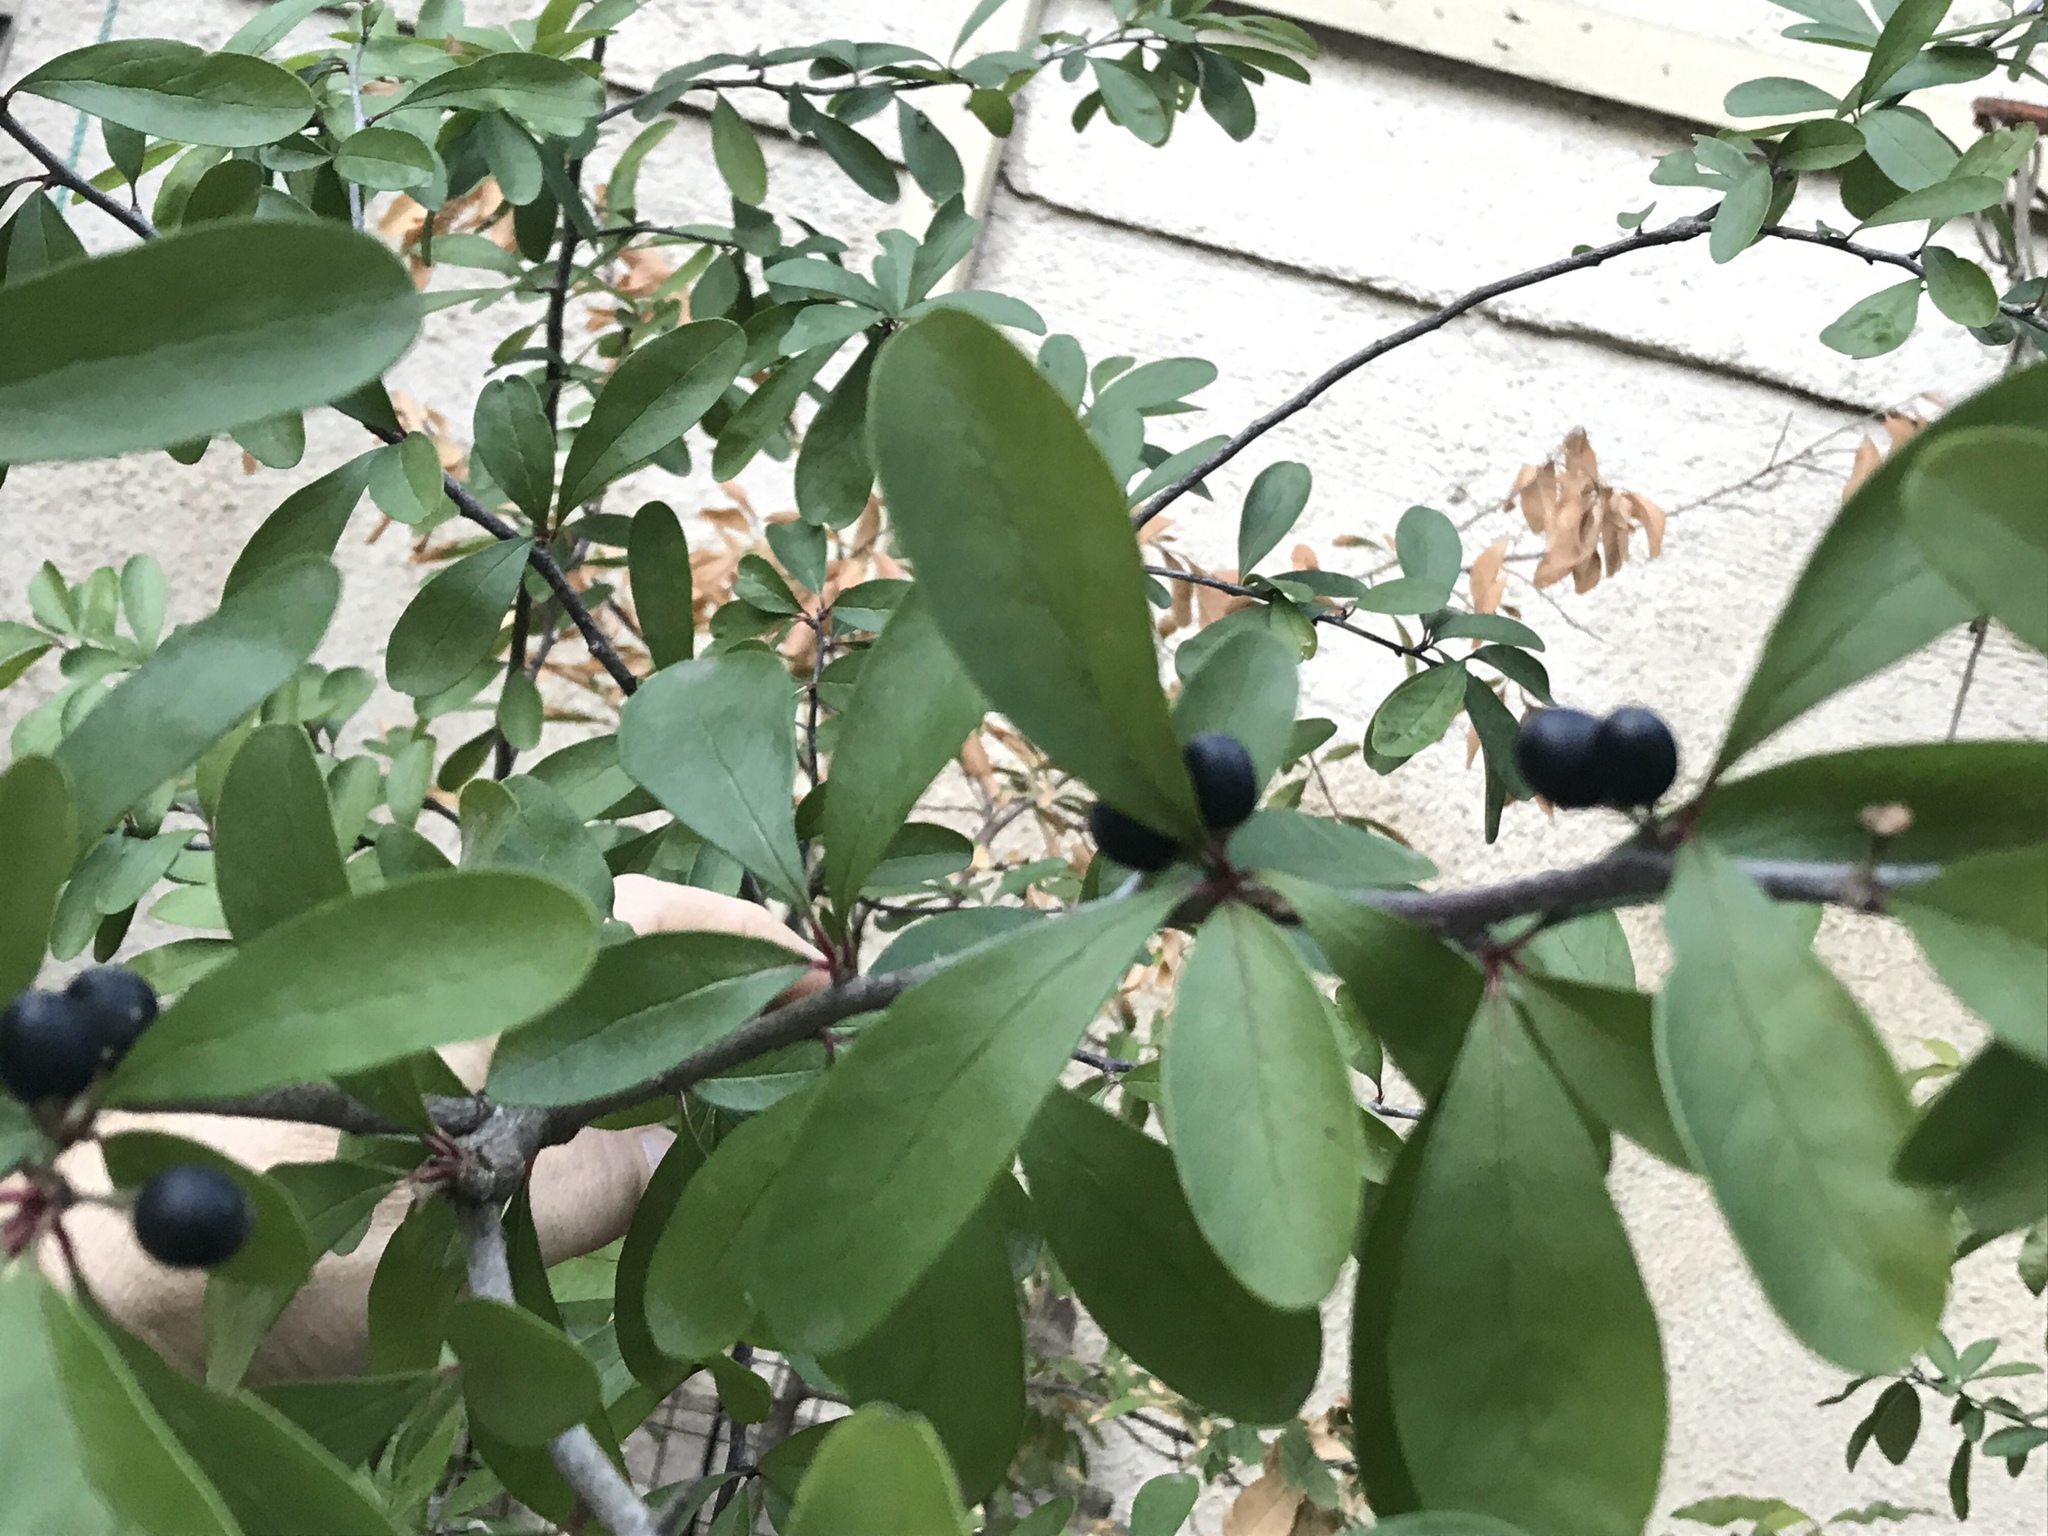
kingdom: Plantae
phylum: Tracheophyta
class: Magnoliopsida
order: Ericales
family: Sapotaceae
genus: Sideroxylon
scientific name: Sideroxylon lanuginosum
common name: Chittamwood
